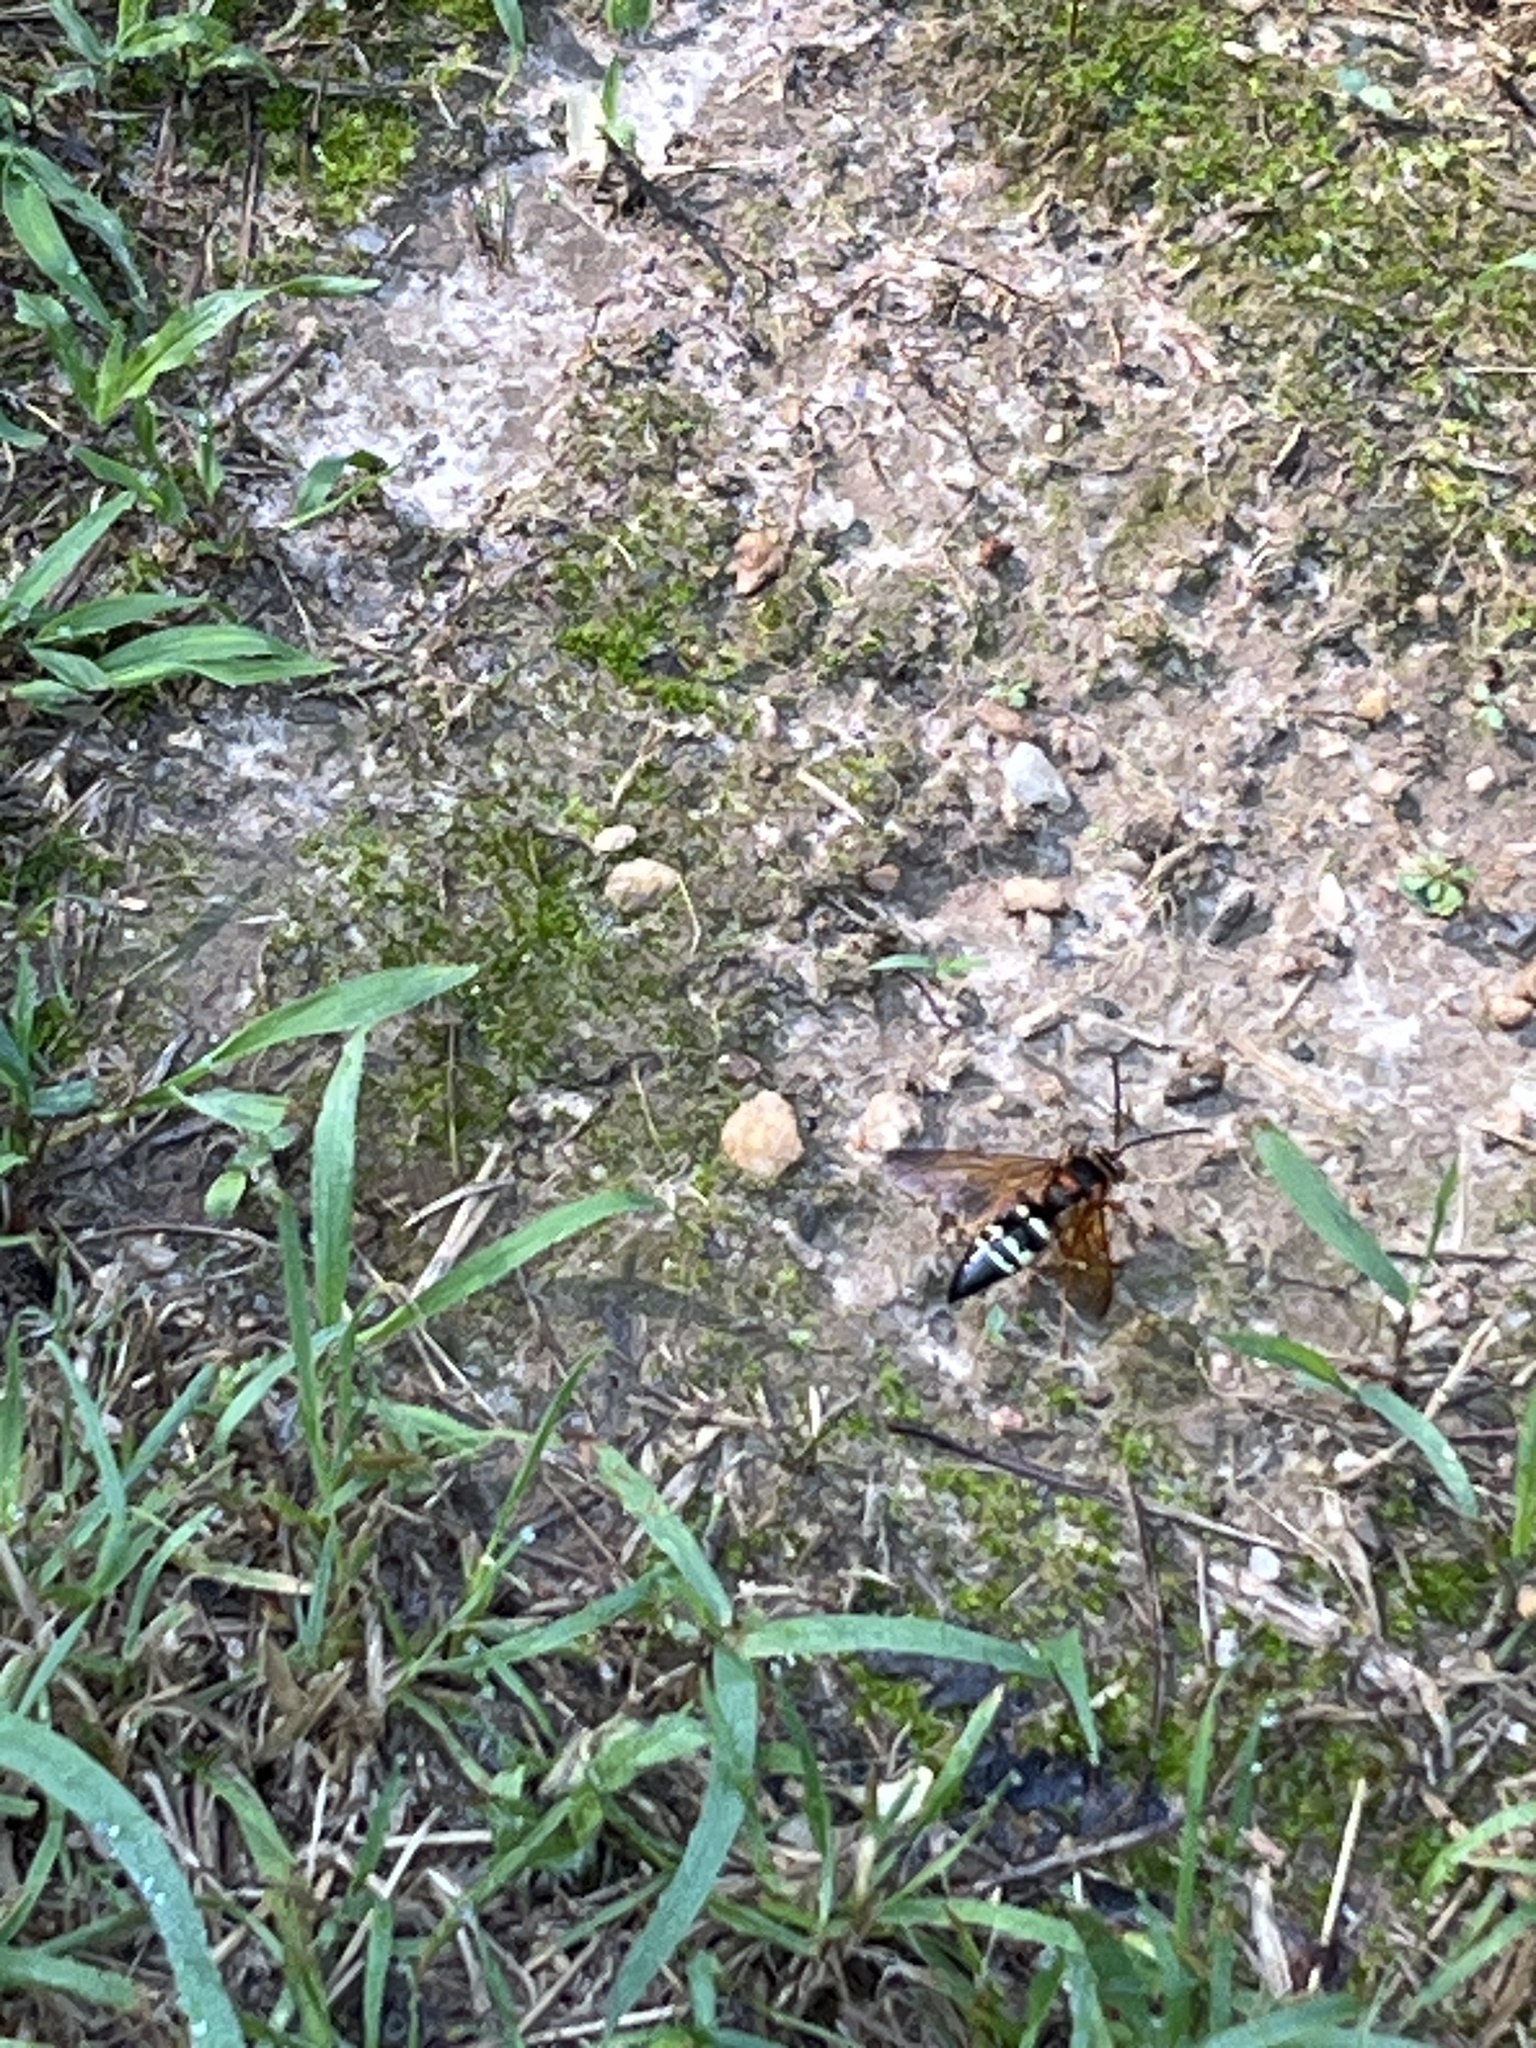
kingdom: Animalia
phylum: Arthropoda
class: Insecta
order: Hymenoptera
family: Crabronidae
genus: Sphecius
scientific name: Sphecius speciosus
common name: Cicada killer
